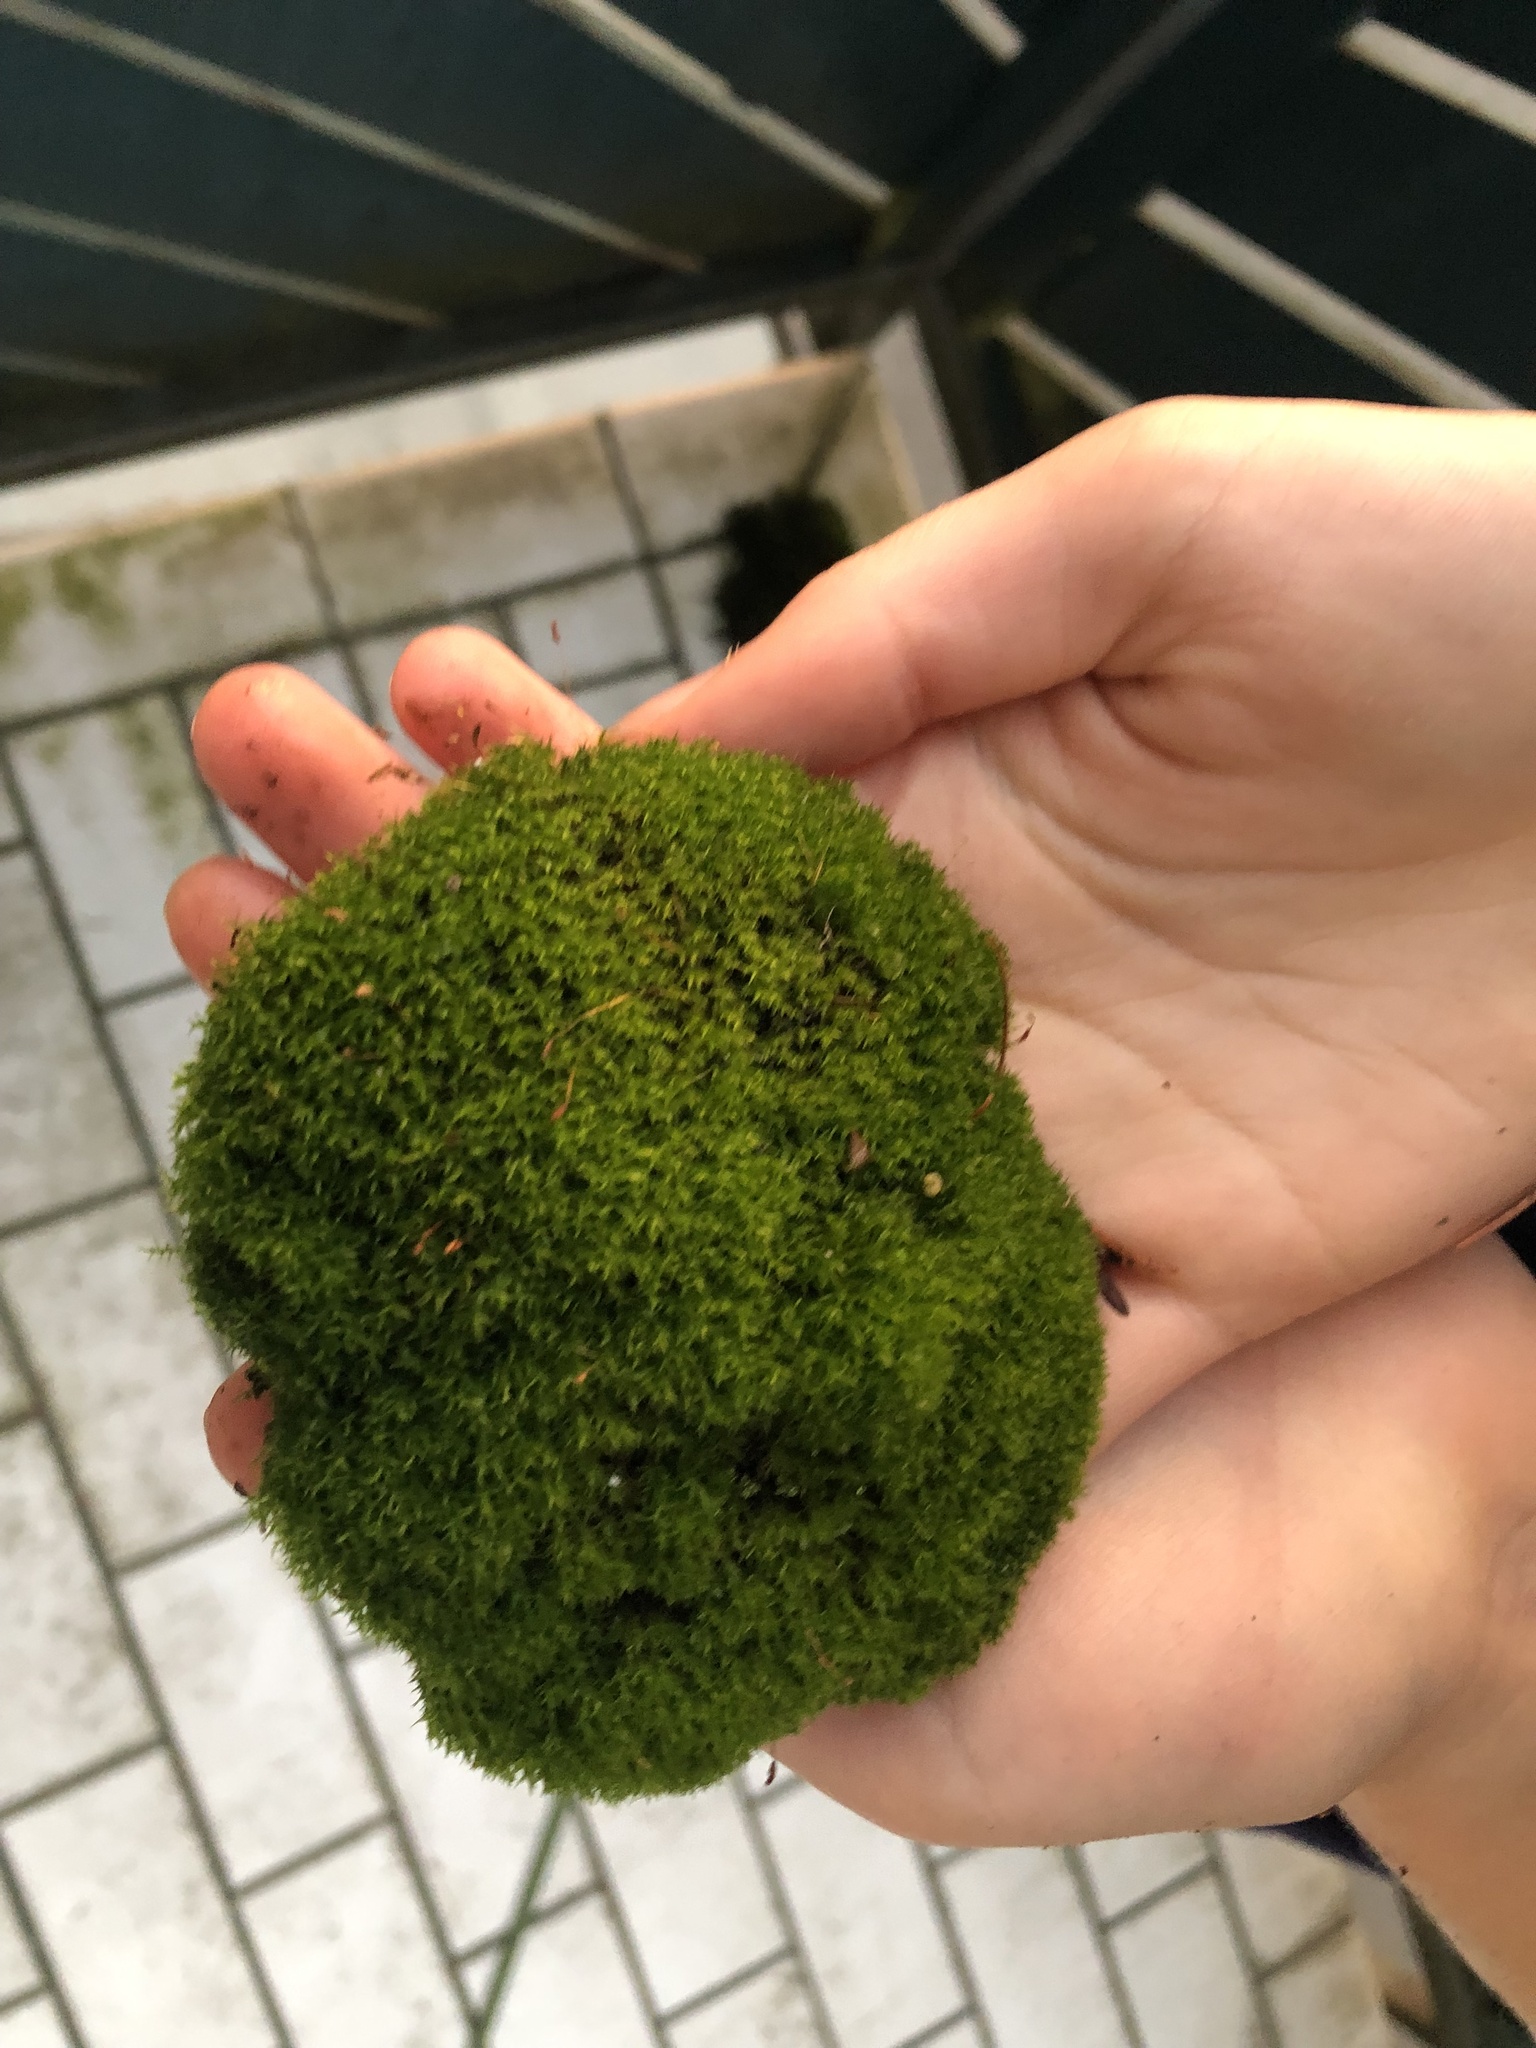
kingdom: Plantae
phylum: Bryophyta
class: Bryopsida
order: Dicranales
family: Ditrichaceae
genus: Ceratodon
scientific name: Ceratodon purpureus
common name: Redshank
